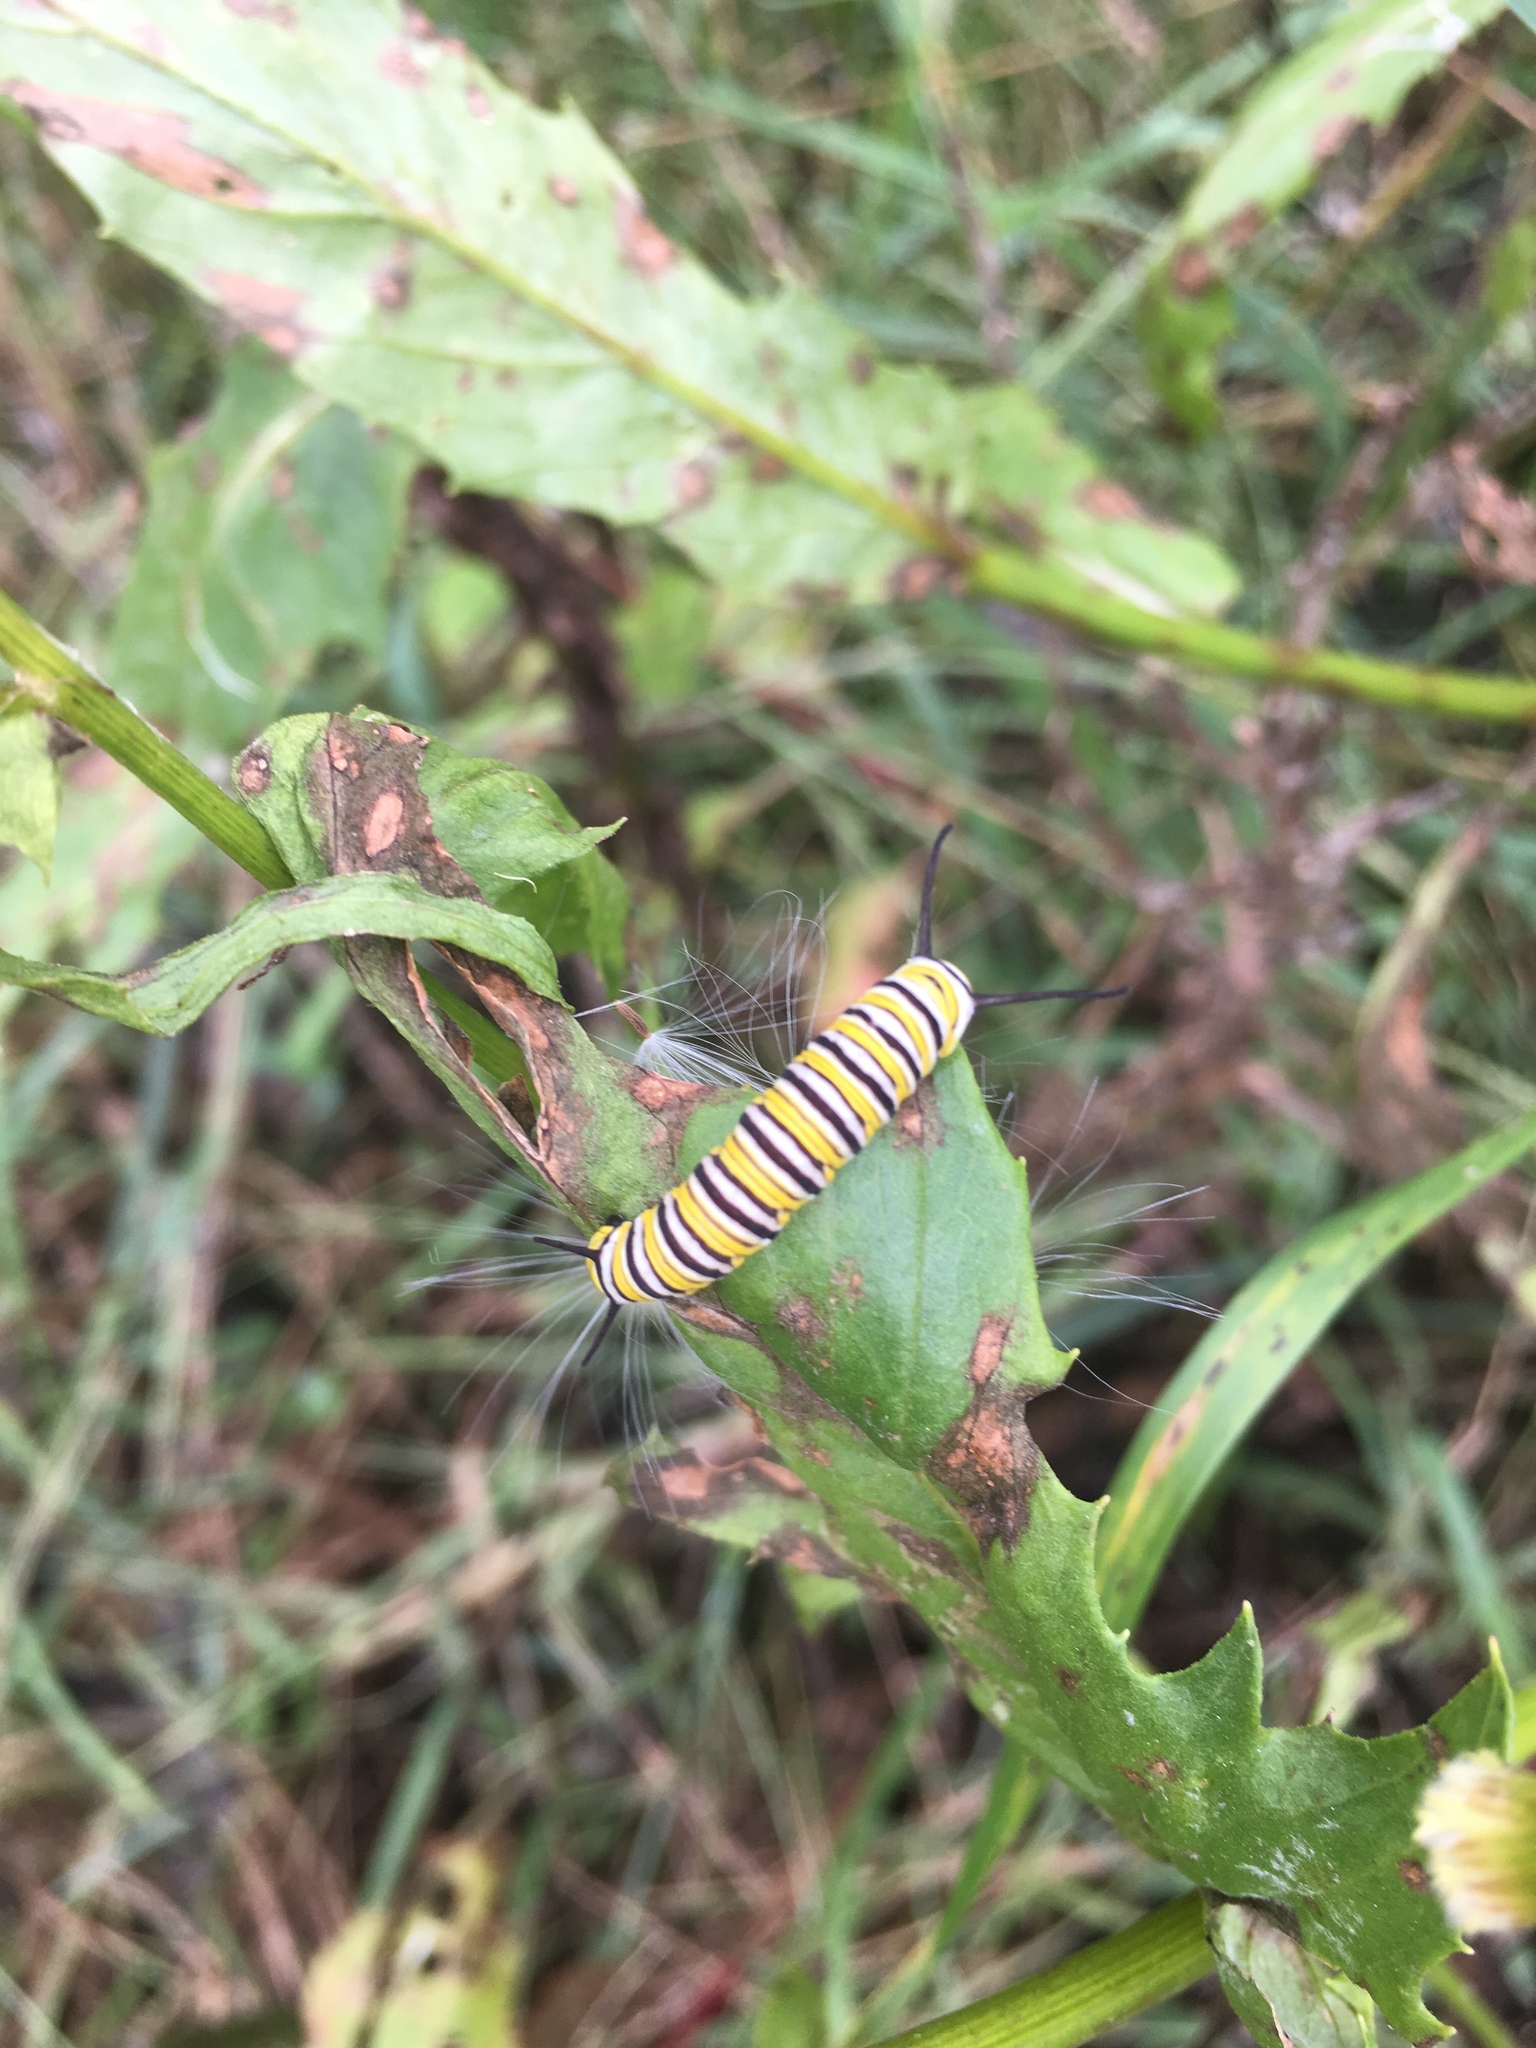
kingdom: Animalia
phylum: Arthropoda
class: Insecta
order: Lepidoptera
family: Nymphalidae
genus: Danaus
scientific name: Danaus plexippus
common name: Monarch
